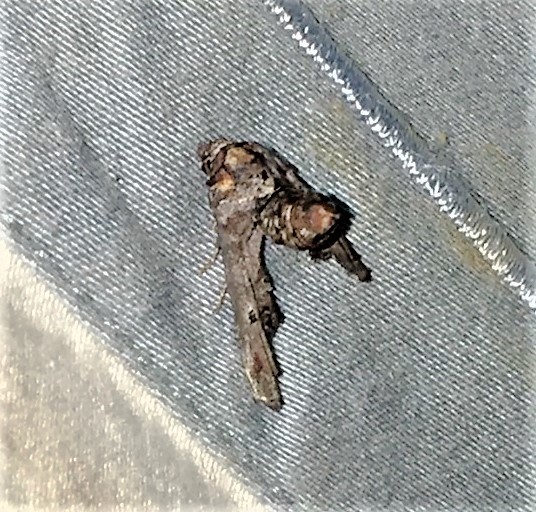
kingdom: Animalia
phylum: Arthropoda
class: Insecta
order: Lepidoptera
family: Euteliidae
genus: Marathyssa
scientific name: Marathyssa inficita
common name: Dark marathyssa moth
